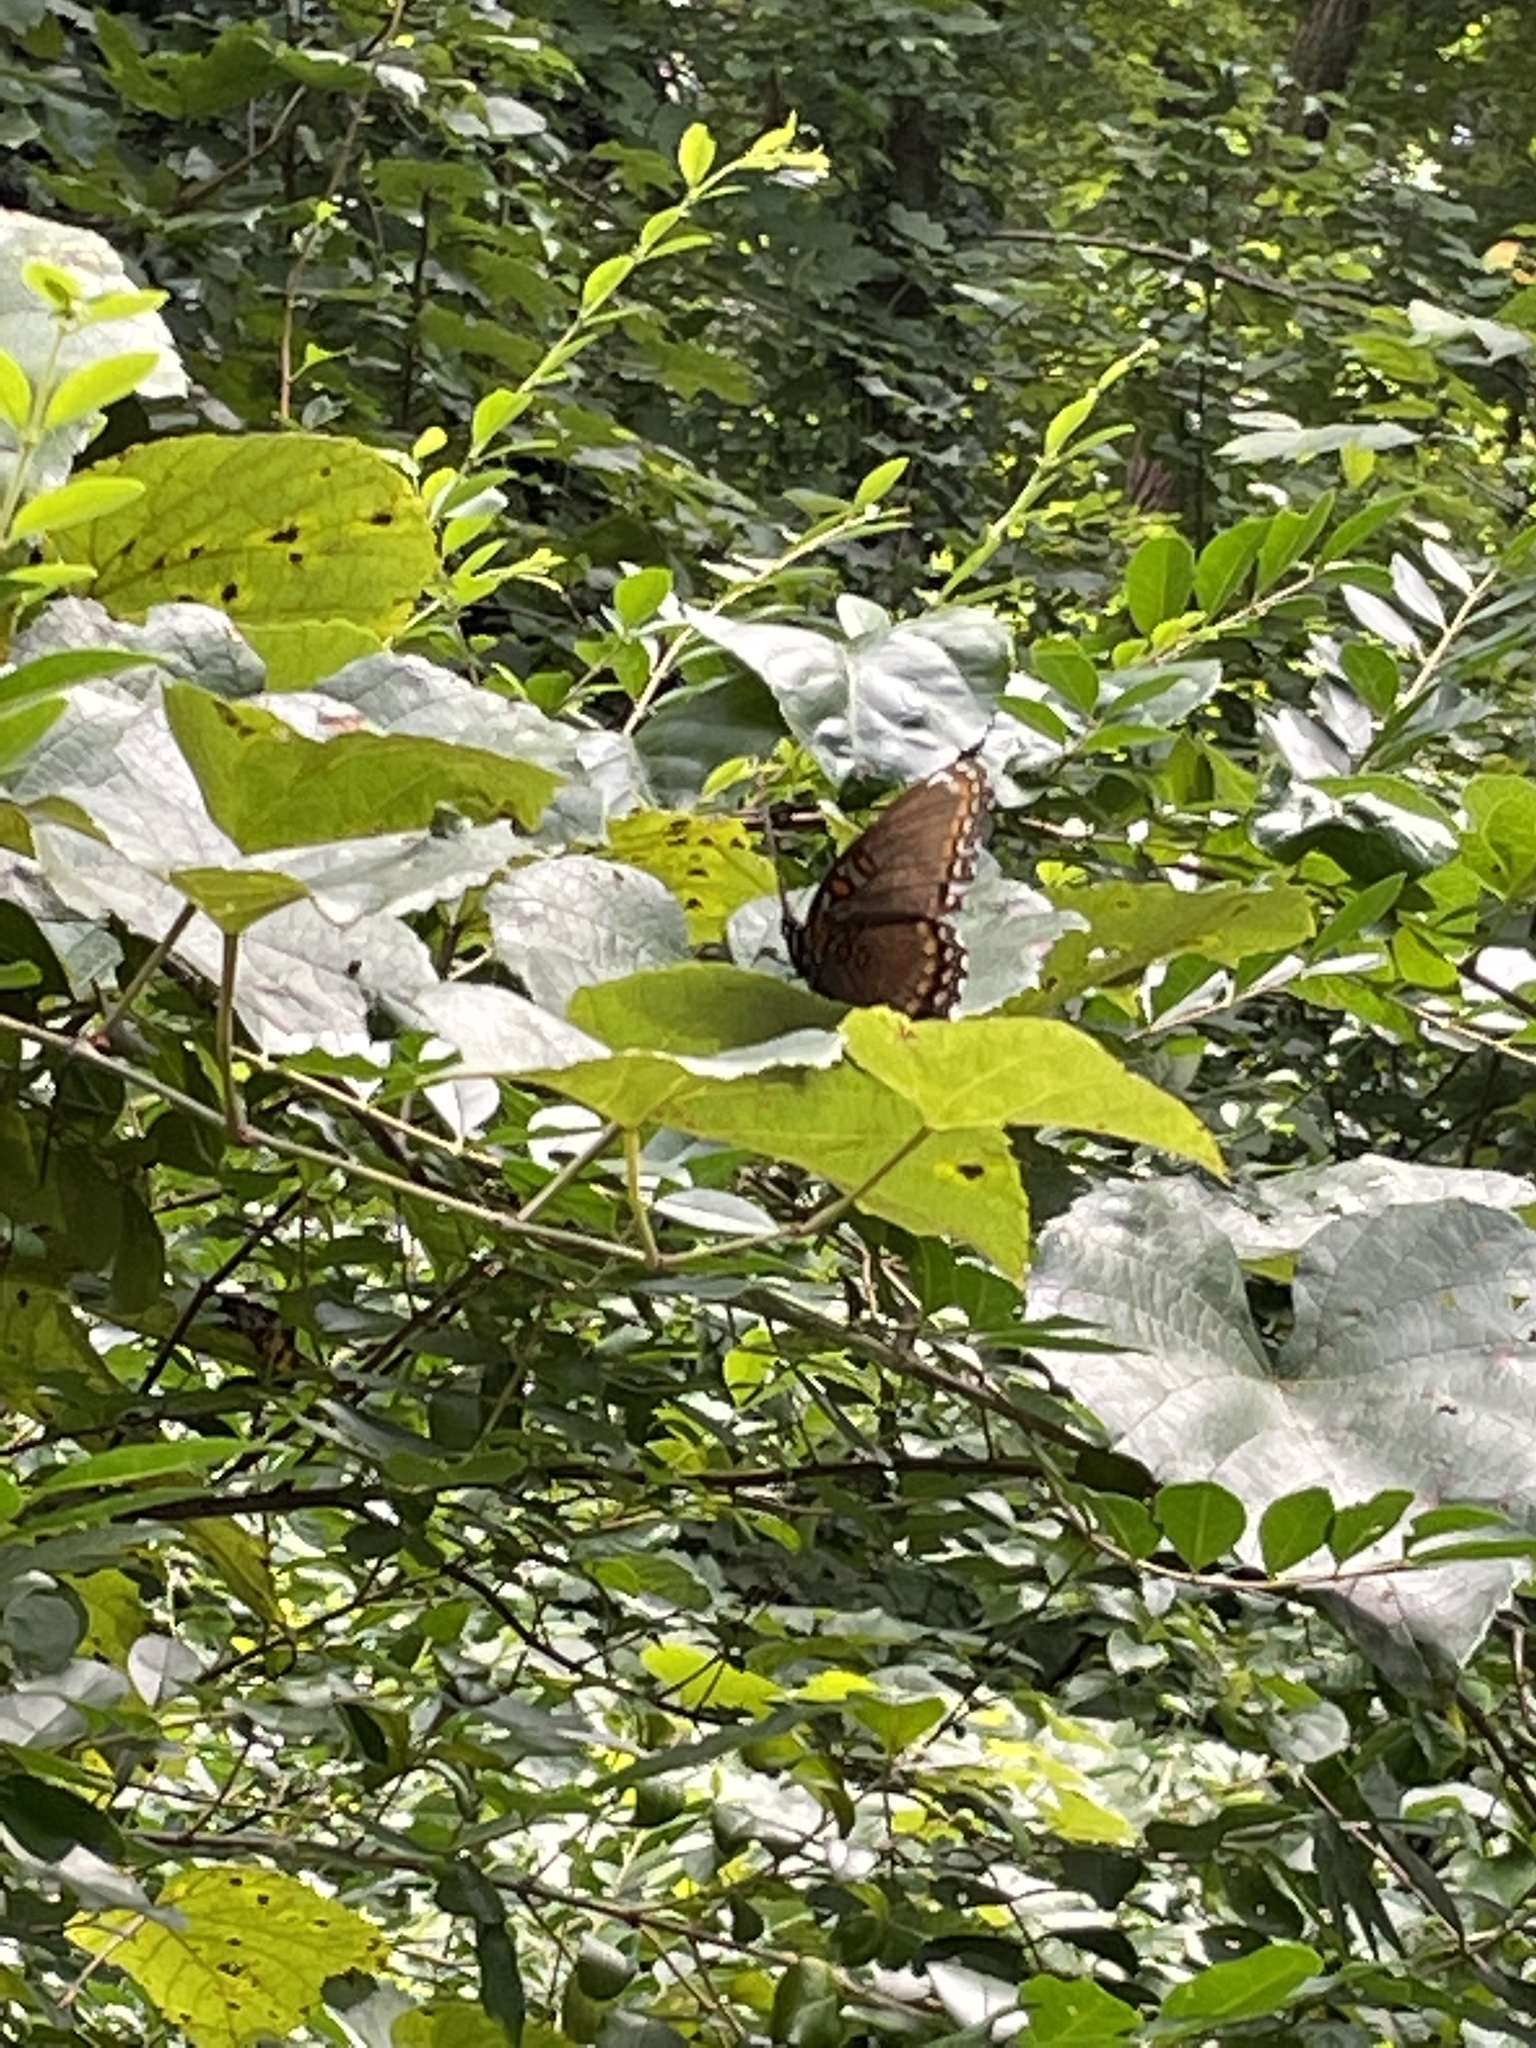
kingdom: Animalia
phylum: Arthropoda
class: Insecta
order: Lepidoptera
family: Nymphalidae
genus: Limenitis
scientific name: Limenitis astyanax
